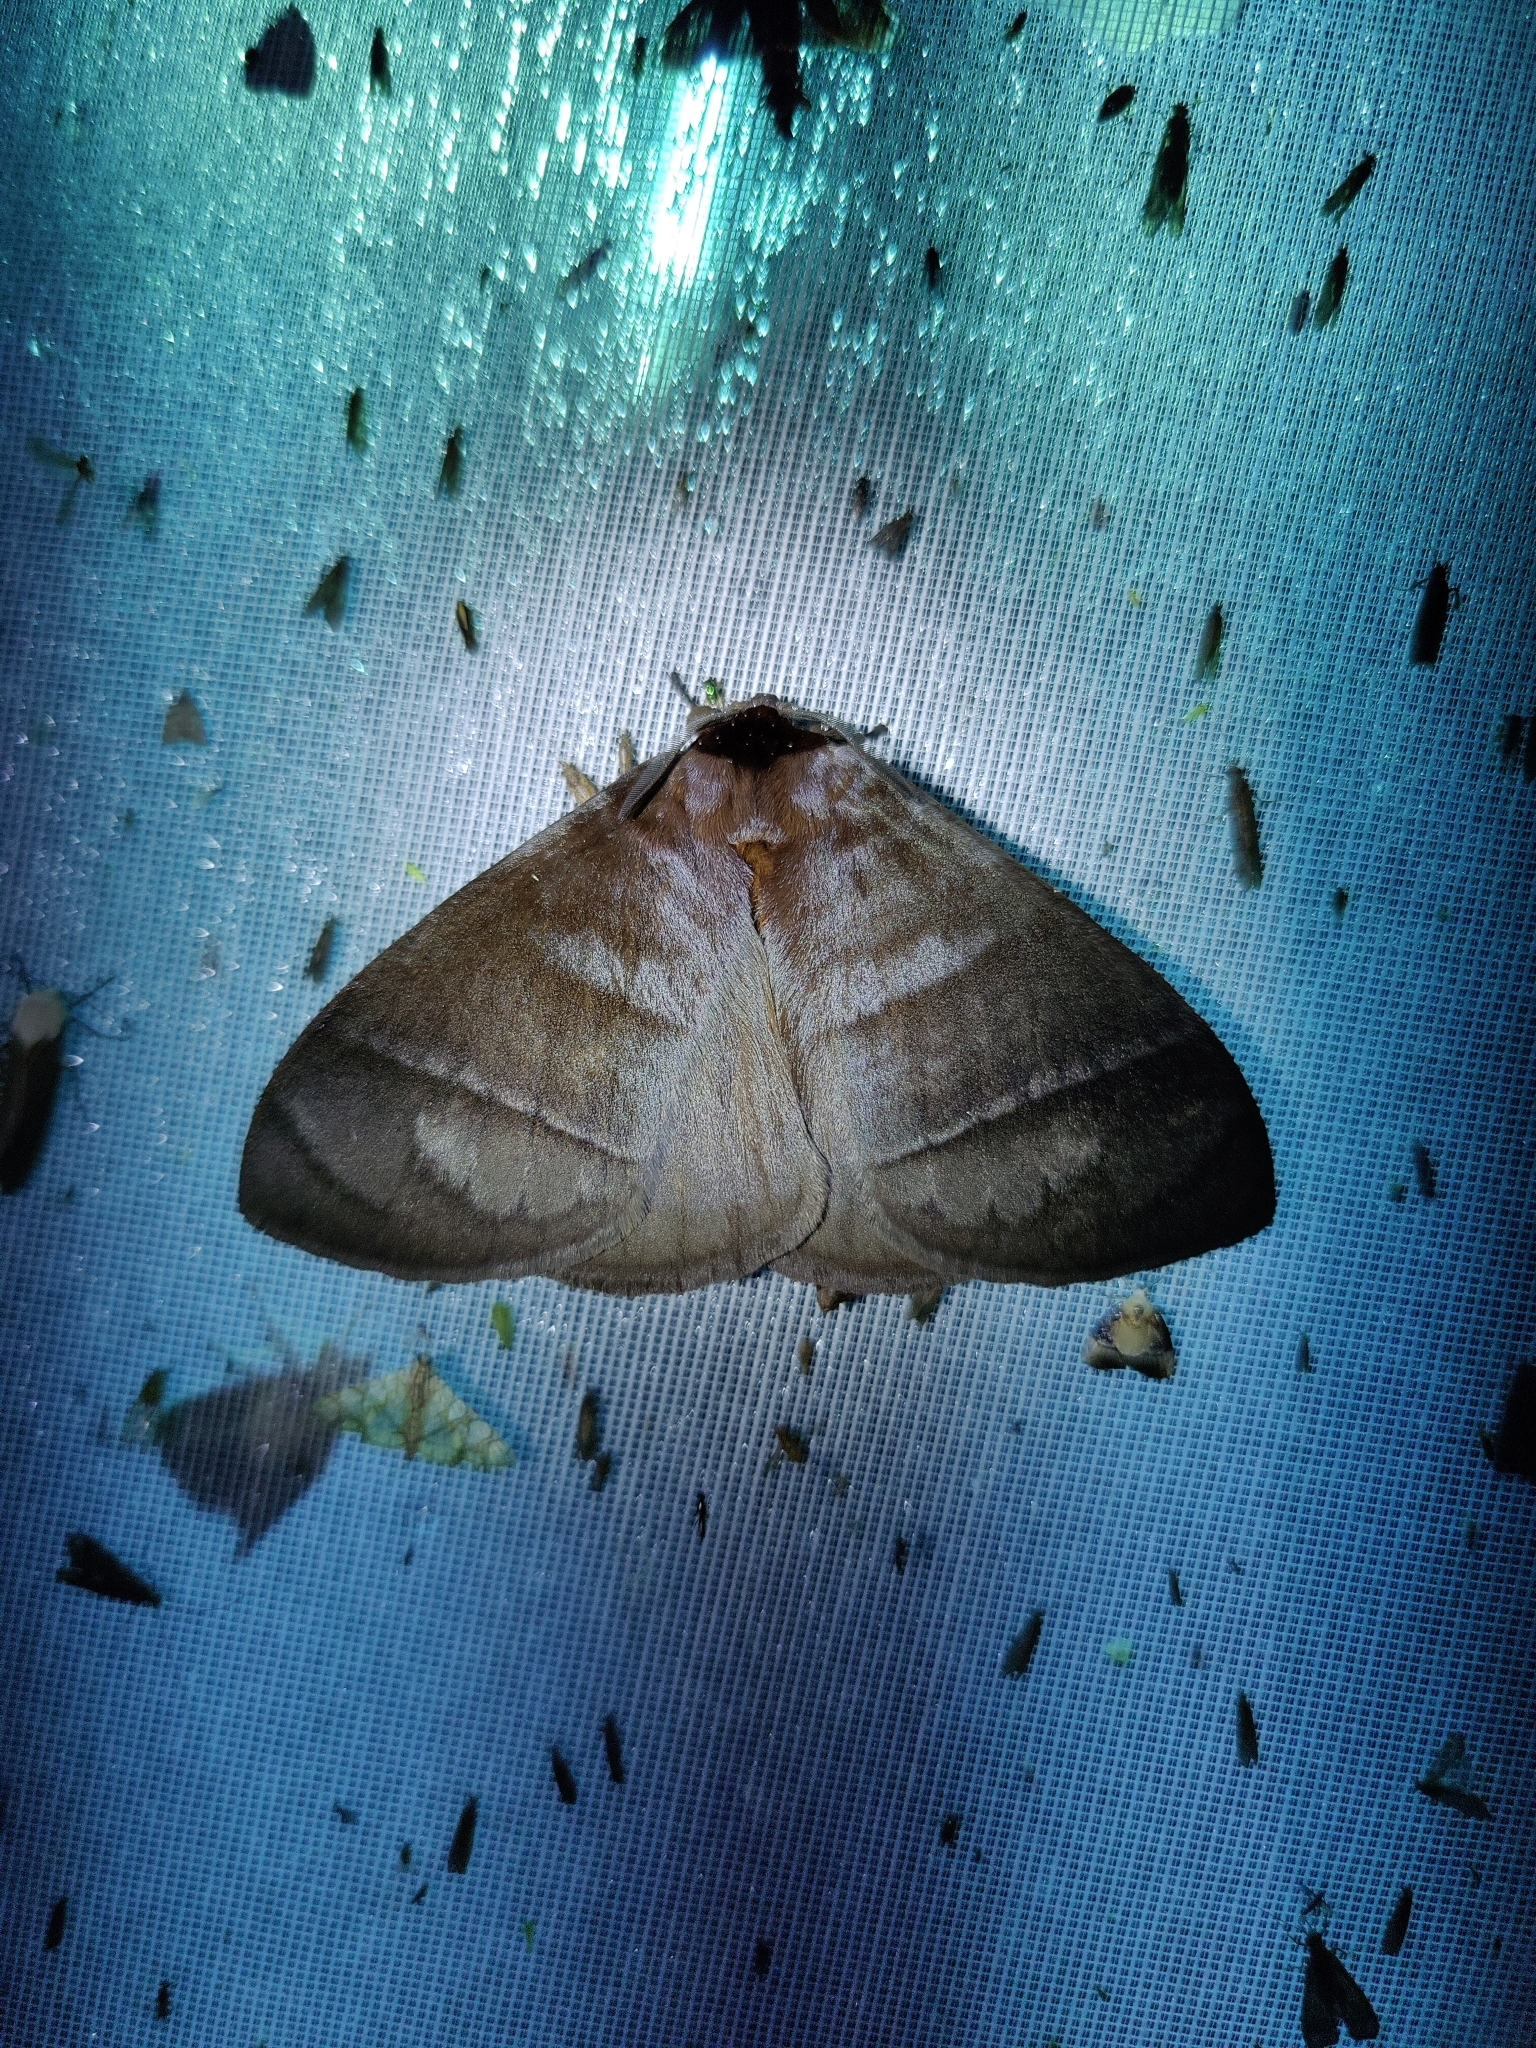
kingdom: Animalia
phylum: Arthropoda
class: Insecta
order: Lepidoptera
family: Eupterotidae
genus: Pseudojana
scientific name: Pseudojana
